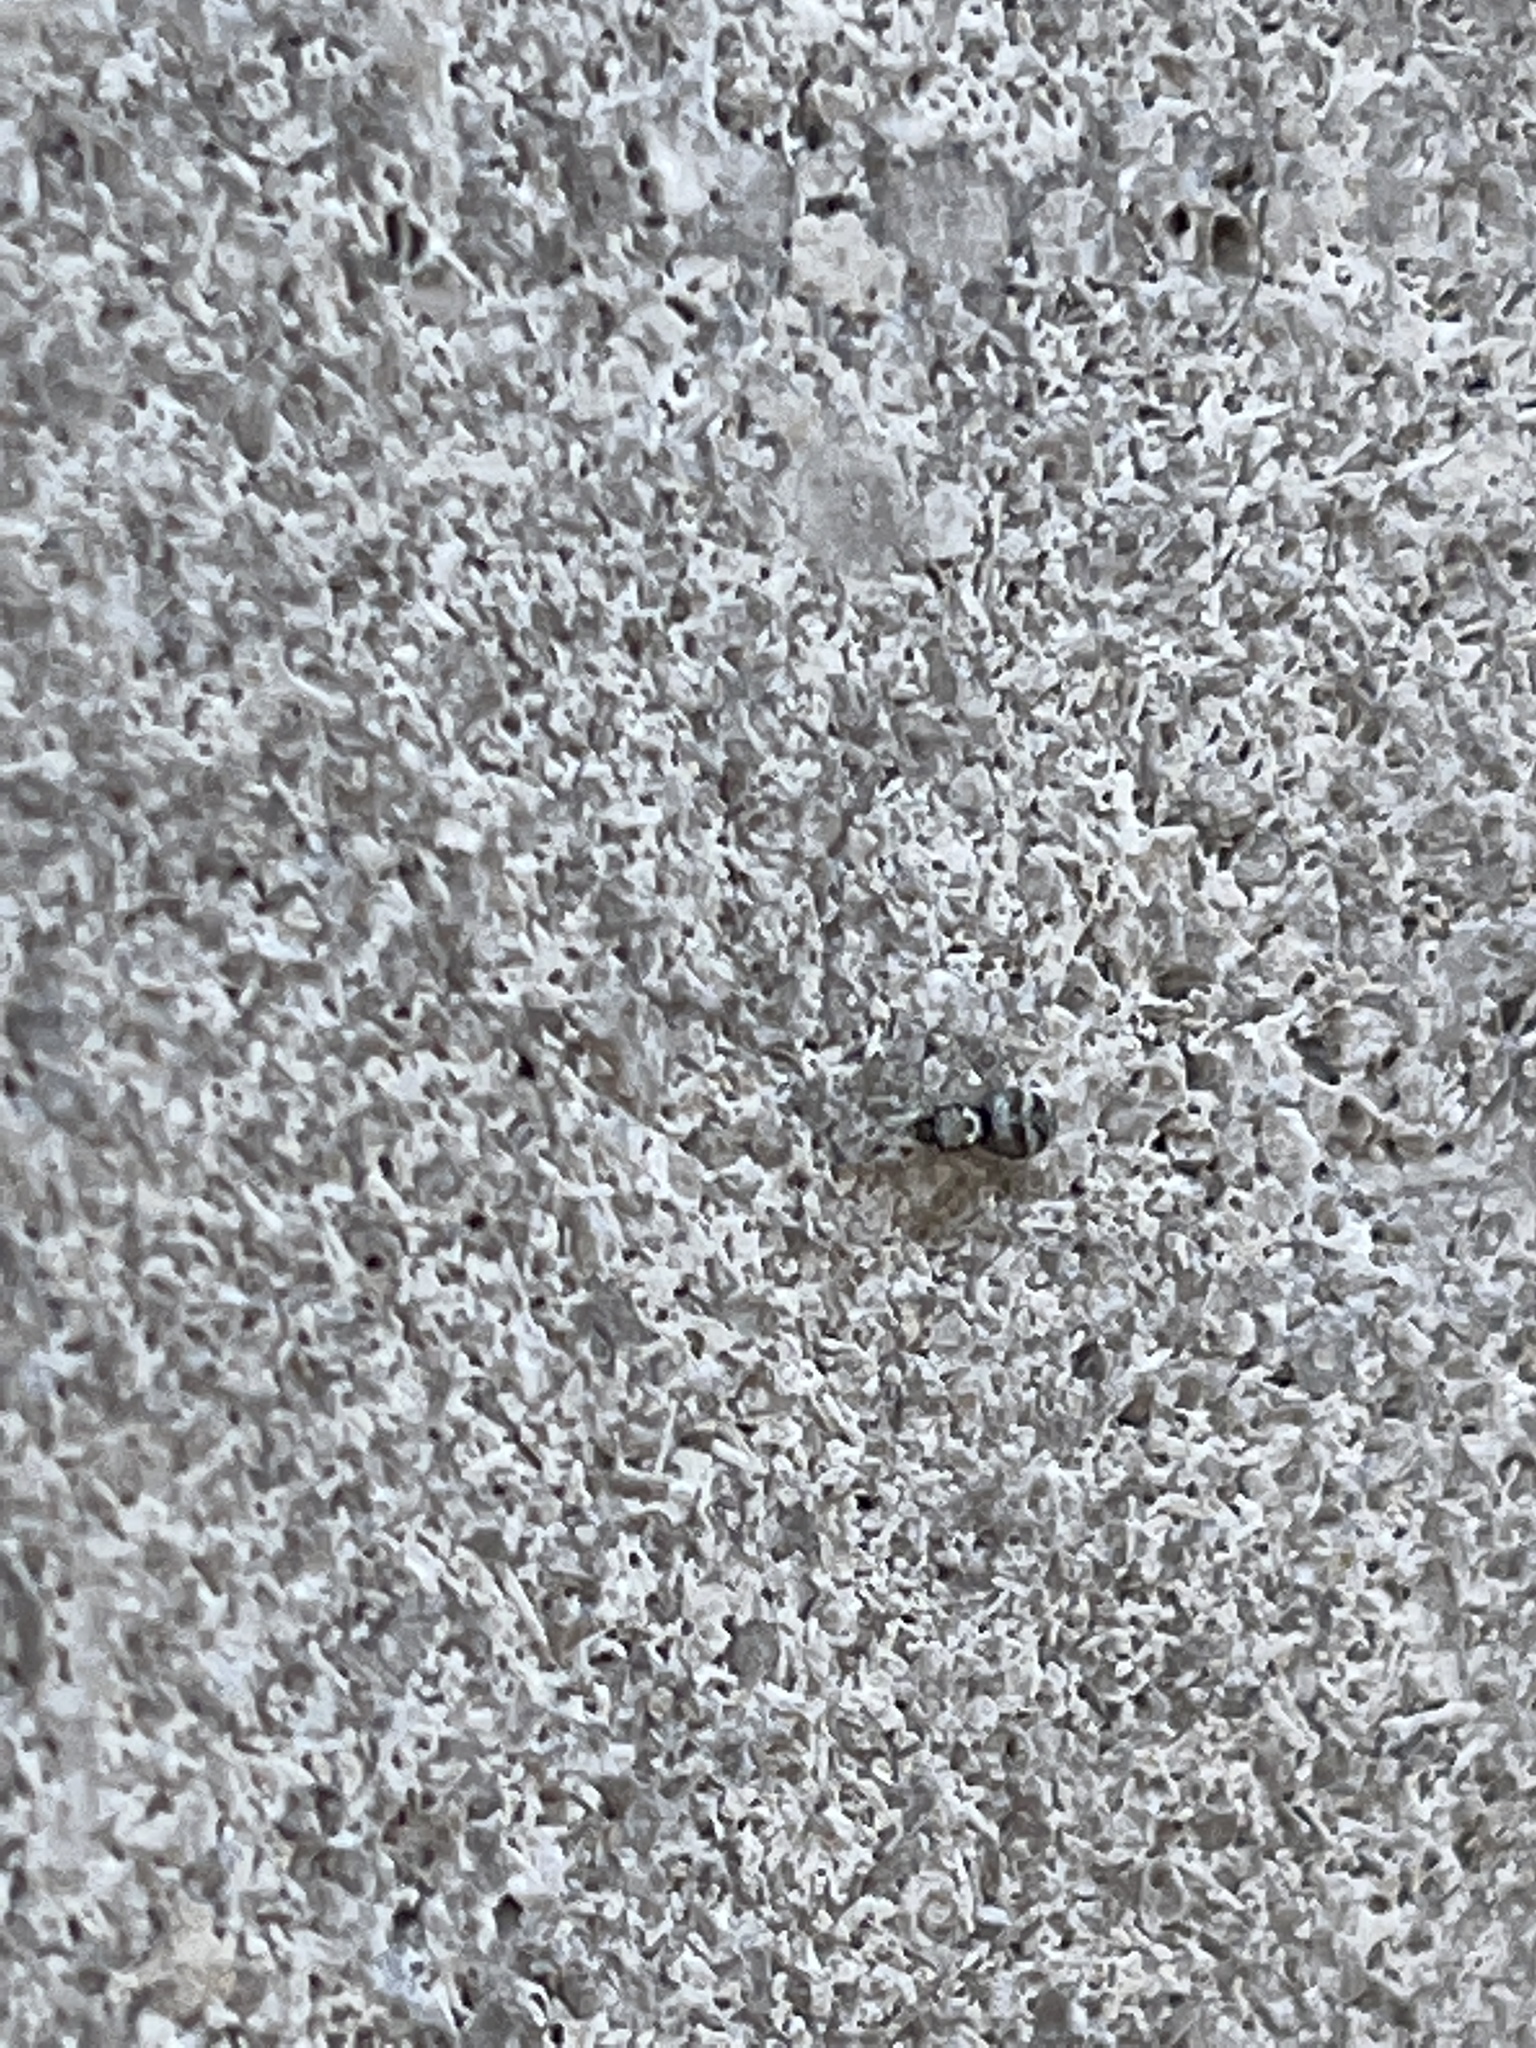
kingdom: Animalia
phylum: Arthropoda
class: Arachnida
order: Araneae
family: Salticidae
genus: Salticus
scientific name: Salticus scenicus
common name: Zebra jumper
